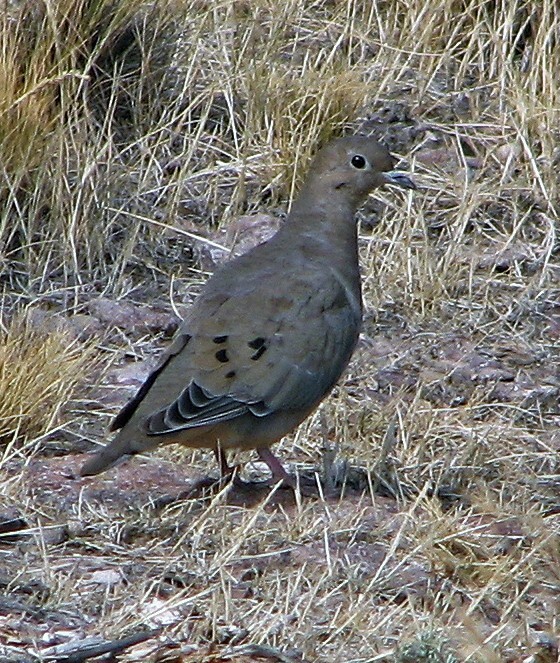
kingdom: Animalia
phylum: Chordata
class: Aves
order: Columbiformes
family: Columbidae
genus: Zenaida
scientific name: Zenaida auriculata
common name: Eared dove
